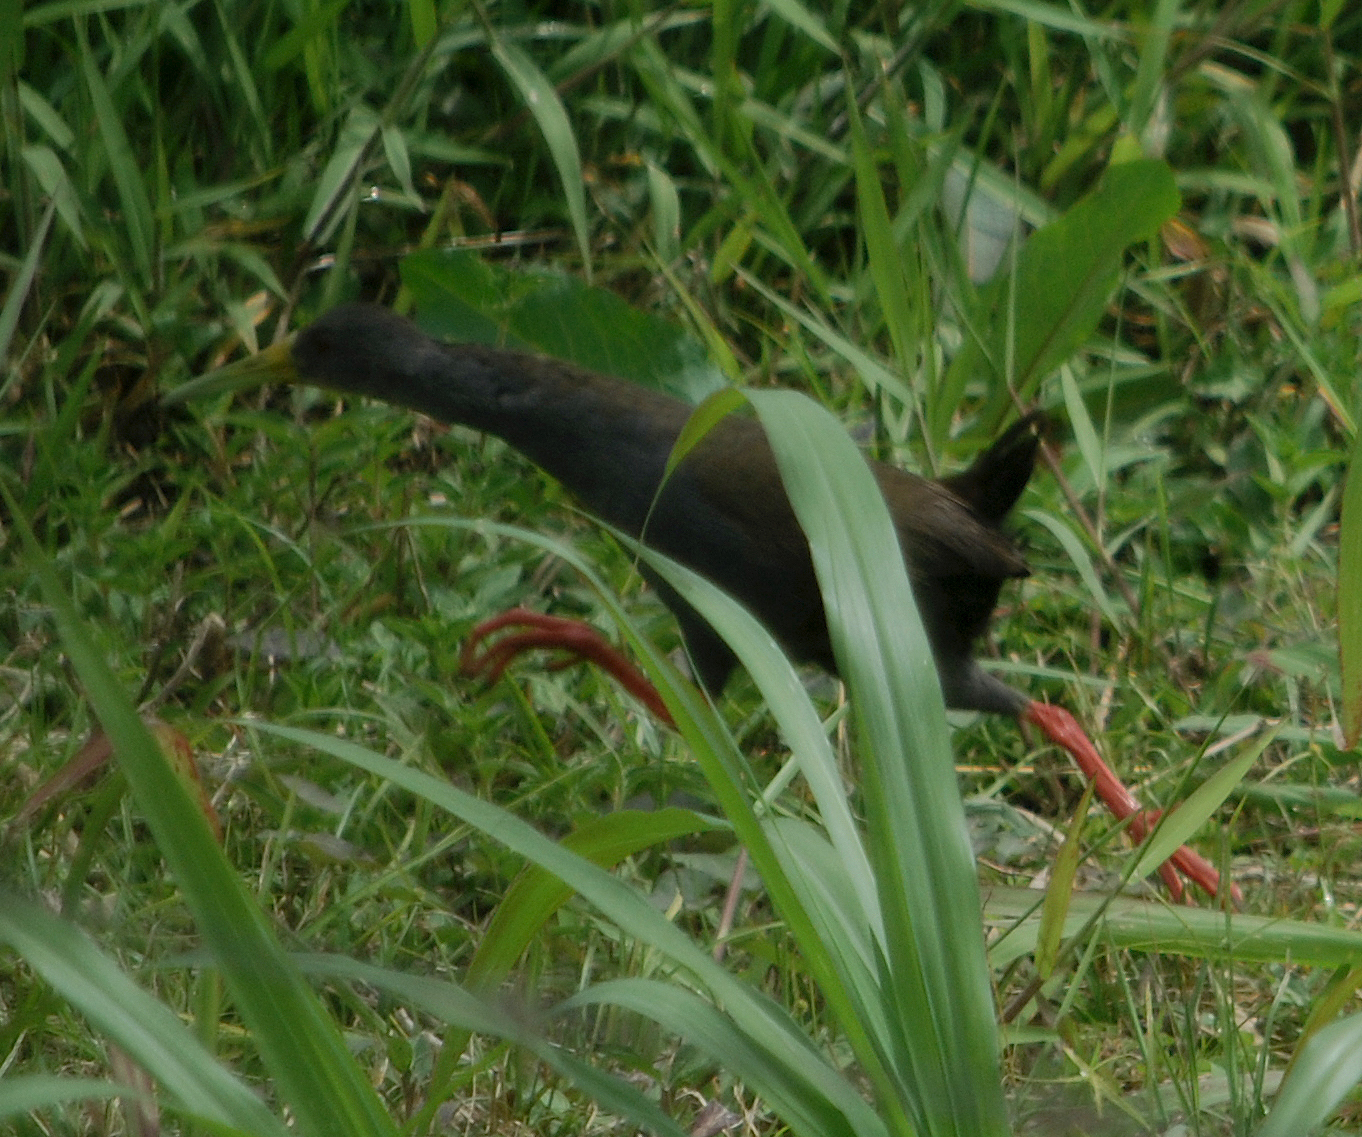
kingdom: Animalia
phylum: Chordata
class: Aves
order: Gruiformes
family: Rallidae
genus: Pardirallus
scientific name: Pardirallus nigricans
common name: Blackish rail
